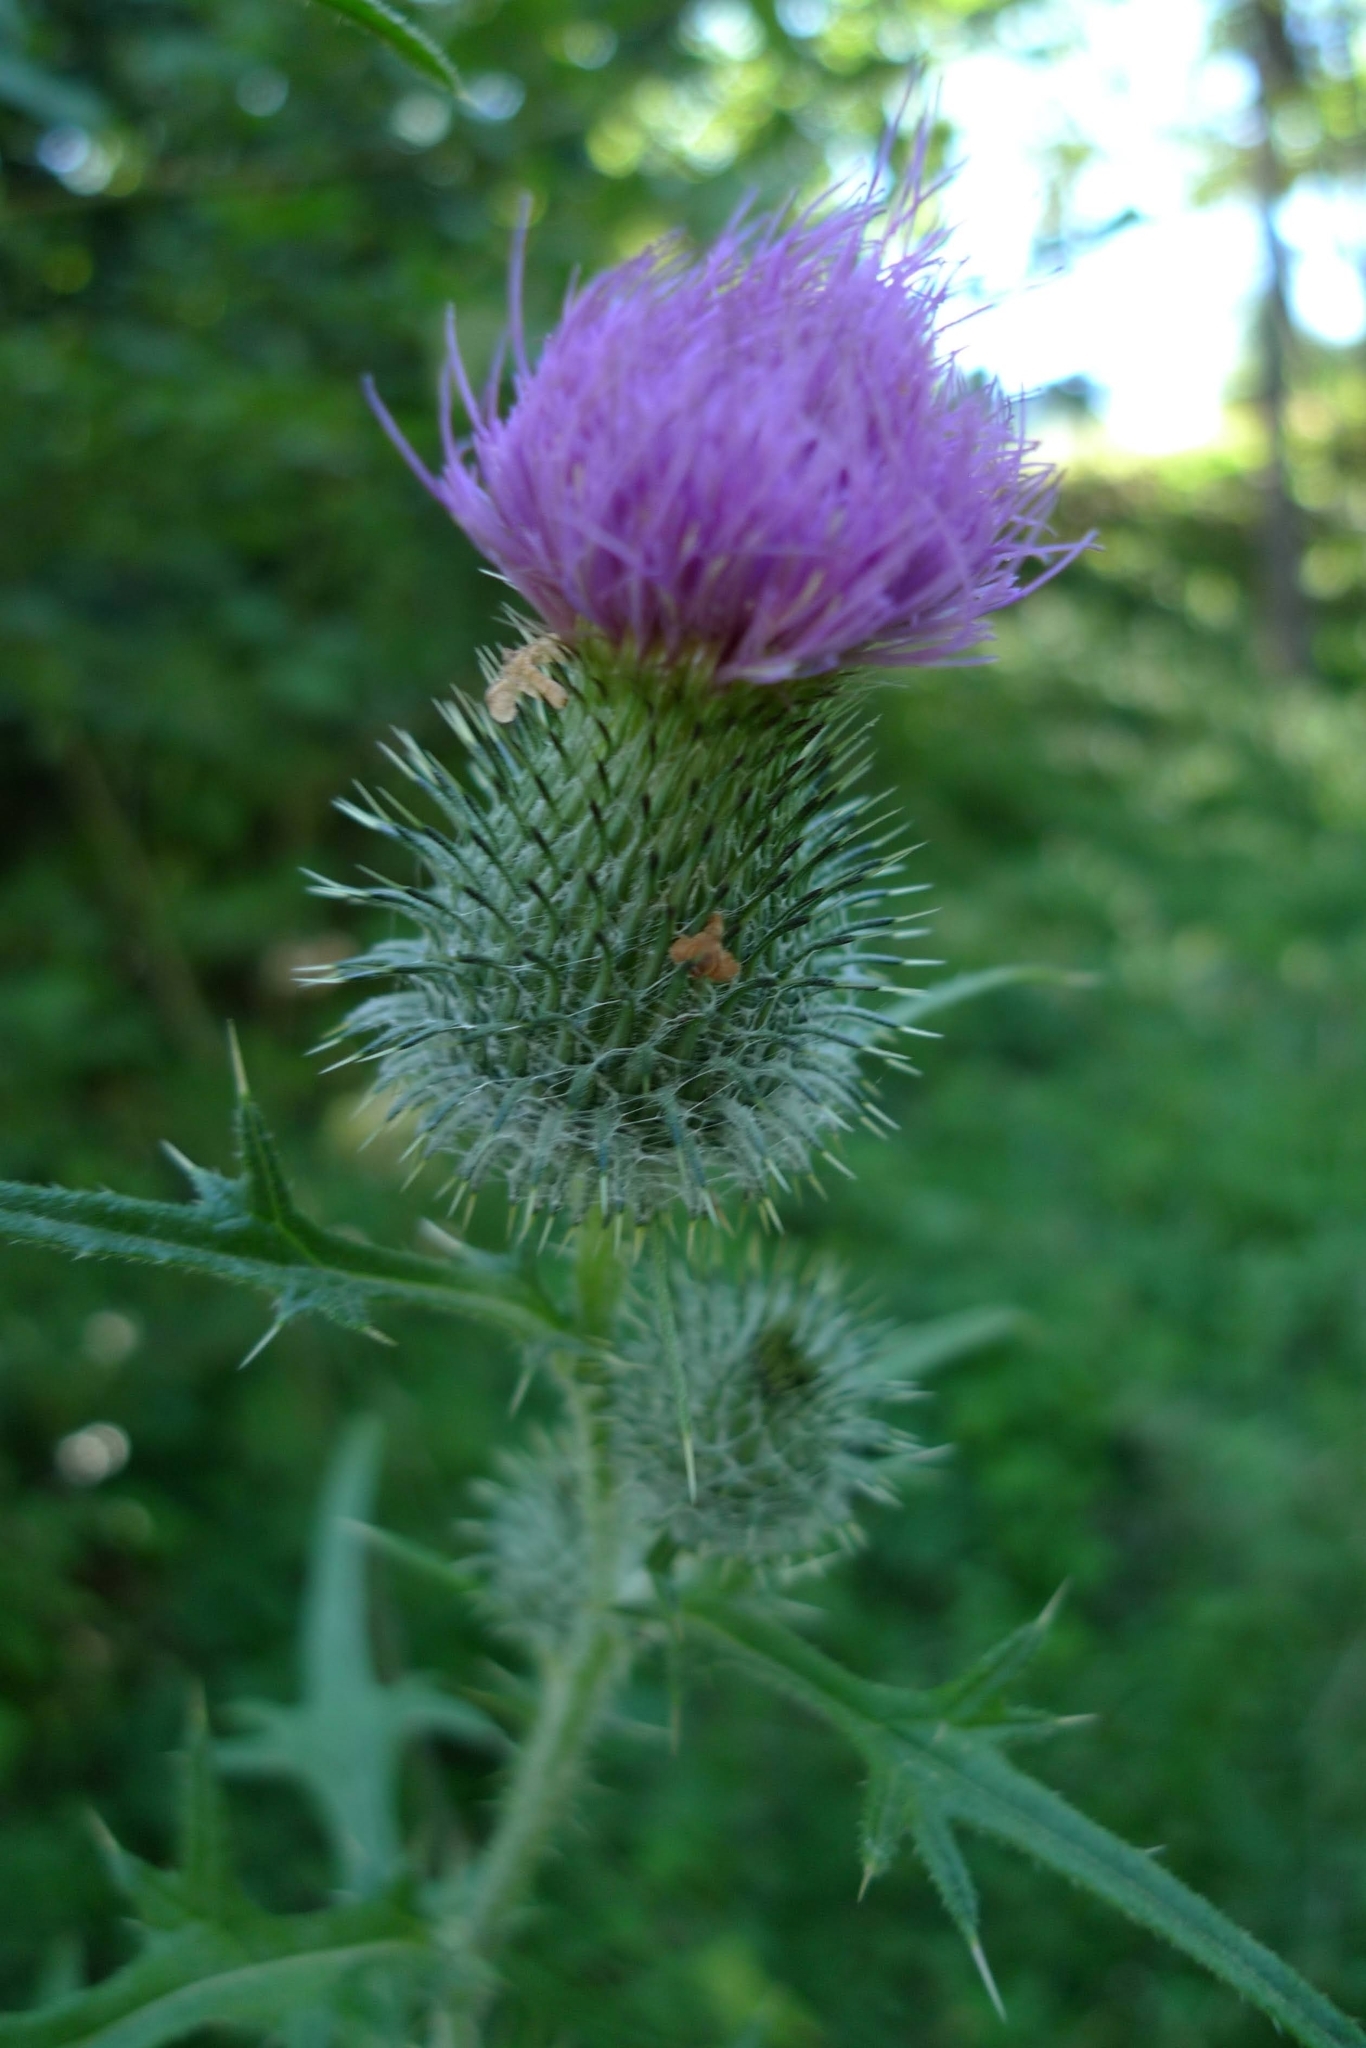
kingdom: Plantae
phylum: Tracheophyta
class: Magnoliopsida
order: Asterales
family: Asteraceae
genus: Cirsium
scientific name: Cirsium vulgare
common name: Bull thistle
